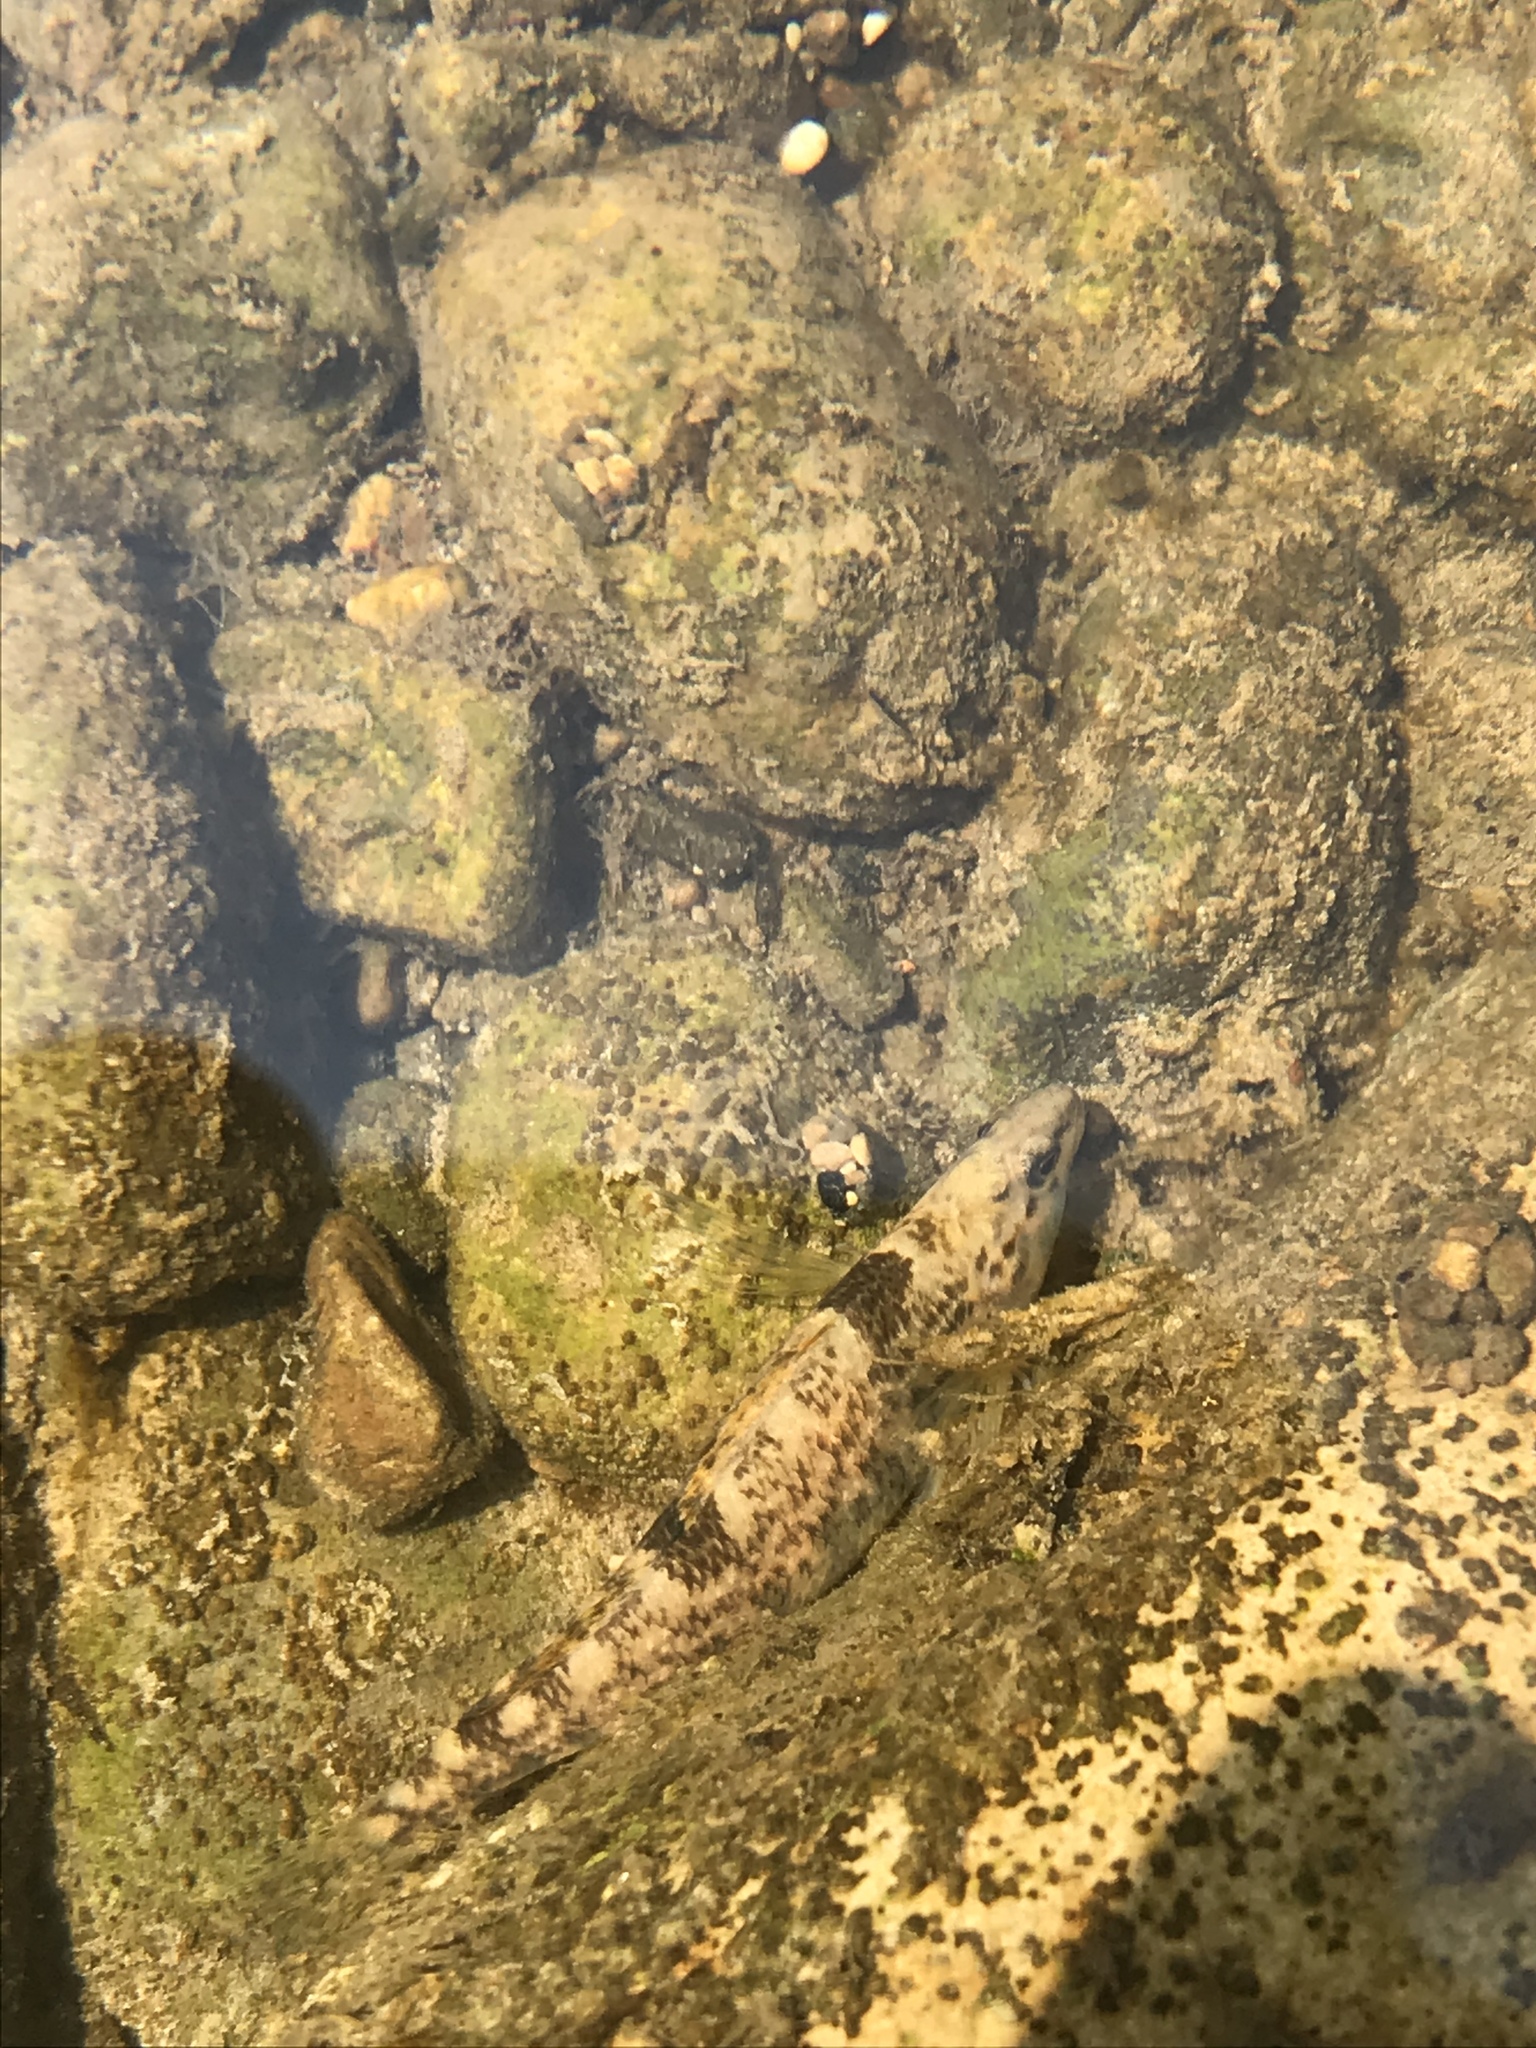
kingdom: Animalia
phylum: Chordata
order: Perciformes
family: Percidae
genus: Etheostoma
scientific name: Etheostoma caeruleum
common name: Rainbow darter
